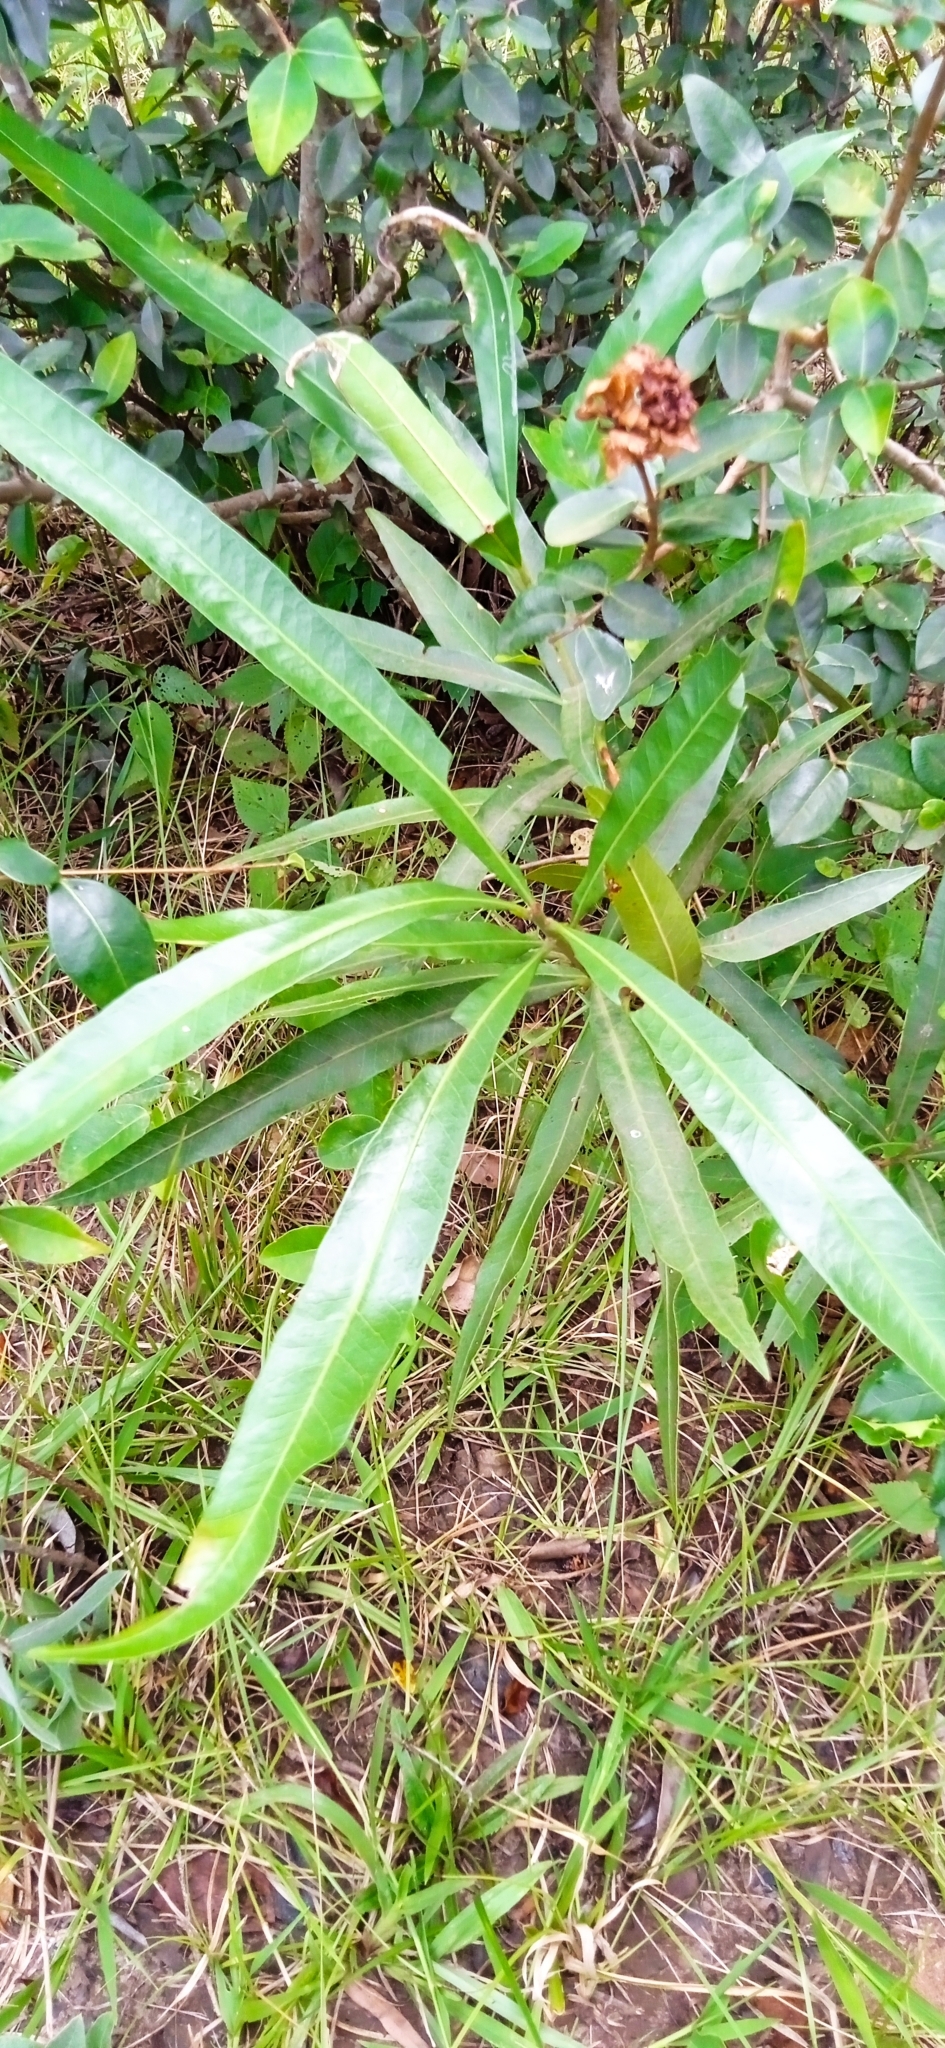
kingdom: Plantae
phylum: Tracheophyta
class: Magnoliopsida
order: Ericales
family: Sapotaceae
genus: Labatia
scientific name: Labatia salicifolia
